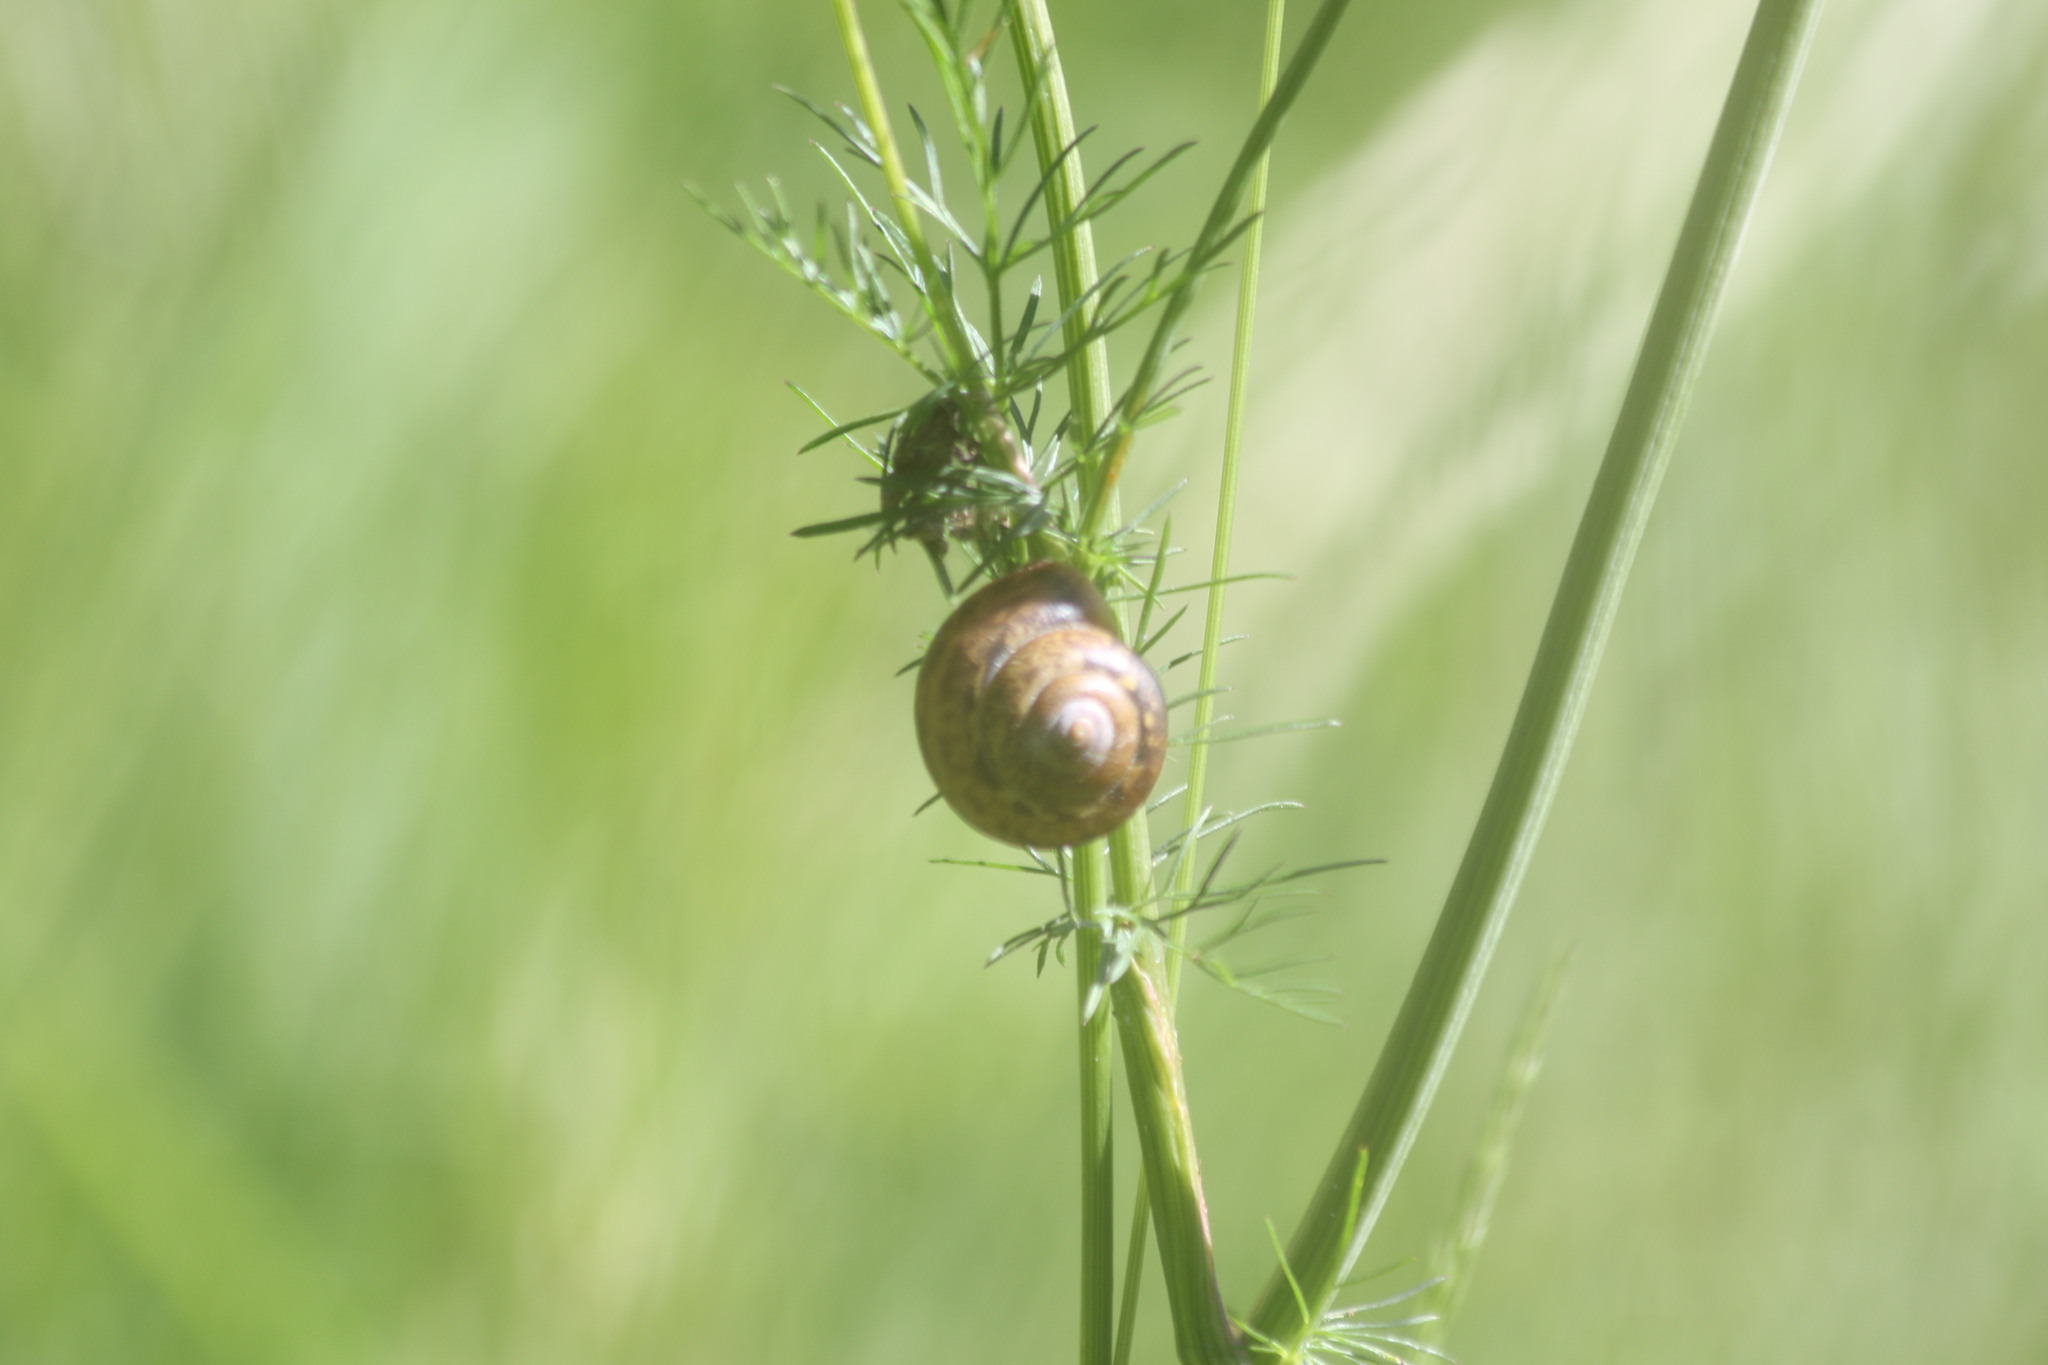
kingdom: Animalia
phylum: Mollusca
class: Gastropoda
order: Stylommatophora
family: Camaenidae
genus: Fruticicola
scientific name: Fruticicola fruticum
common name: Bush snail
